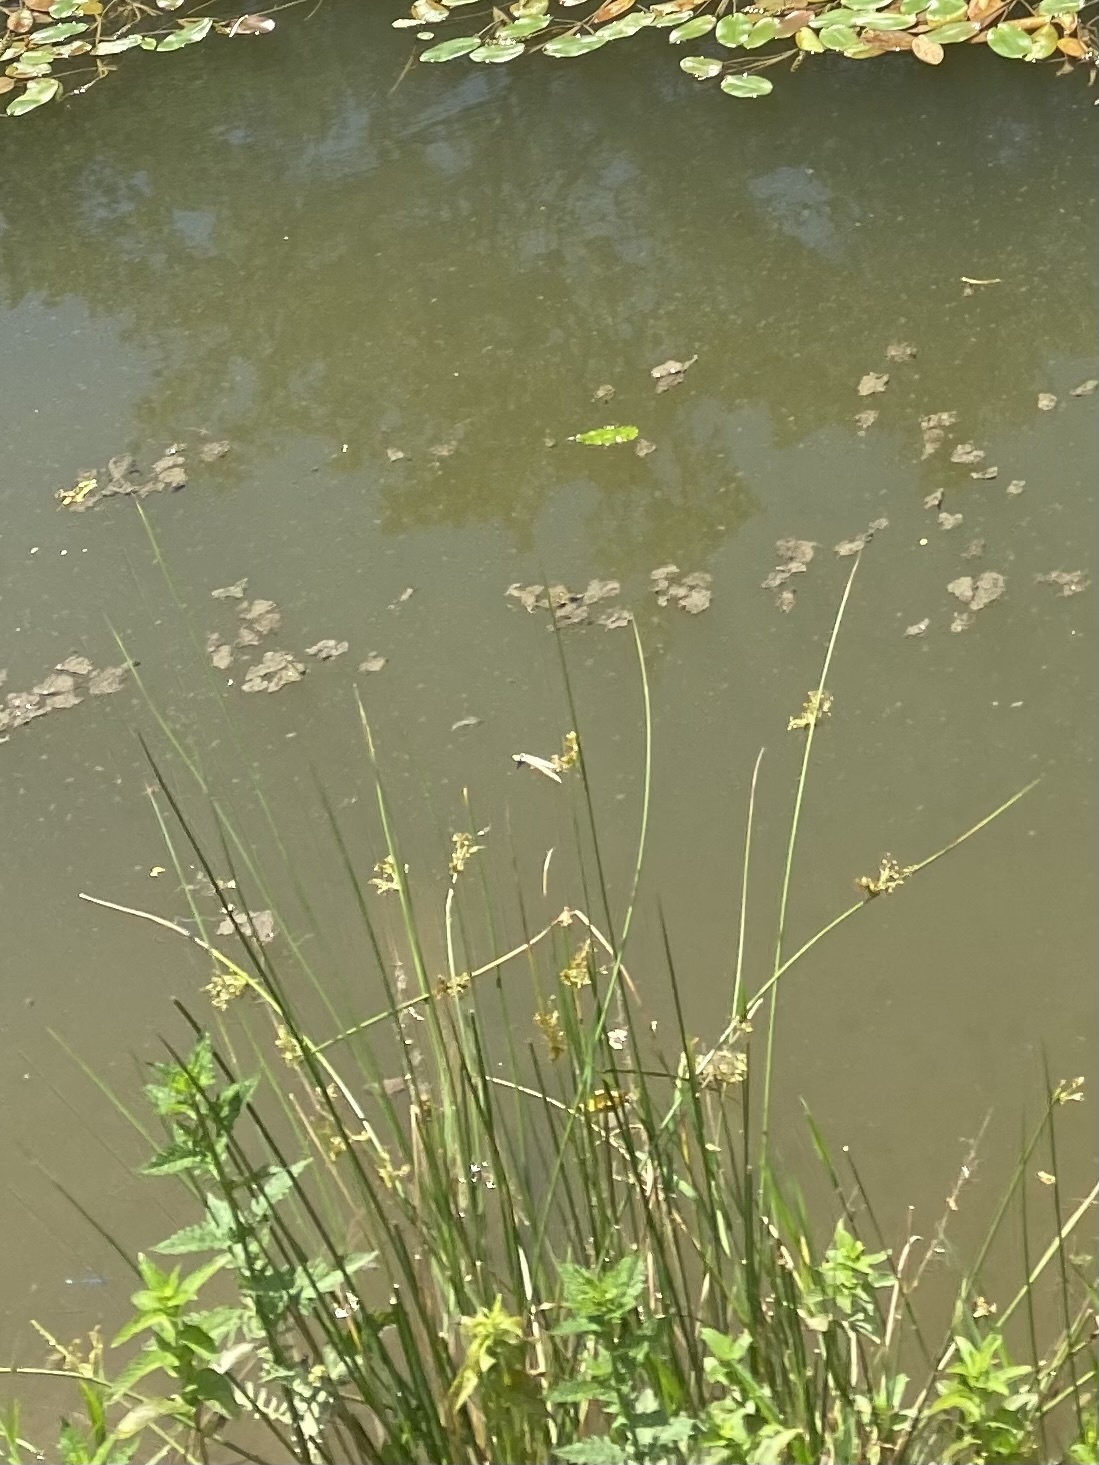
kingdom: Plantae
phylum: Tracheophyta
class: Liliopsida
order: Poales
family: Juncaceae
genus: Juncus
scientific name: Juncus effusus
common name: Soft rush
